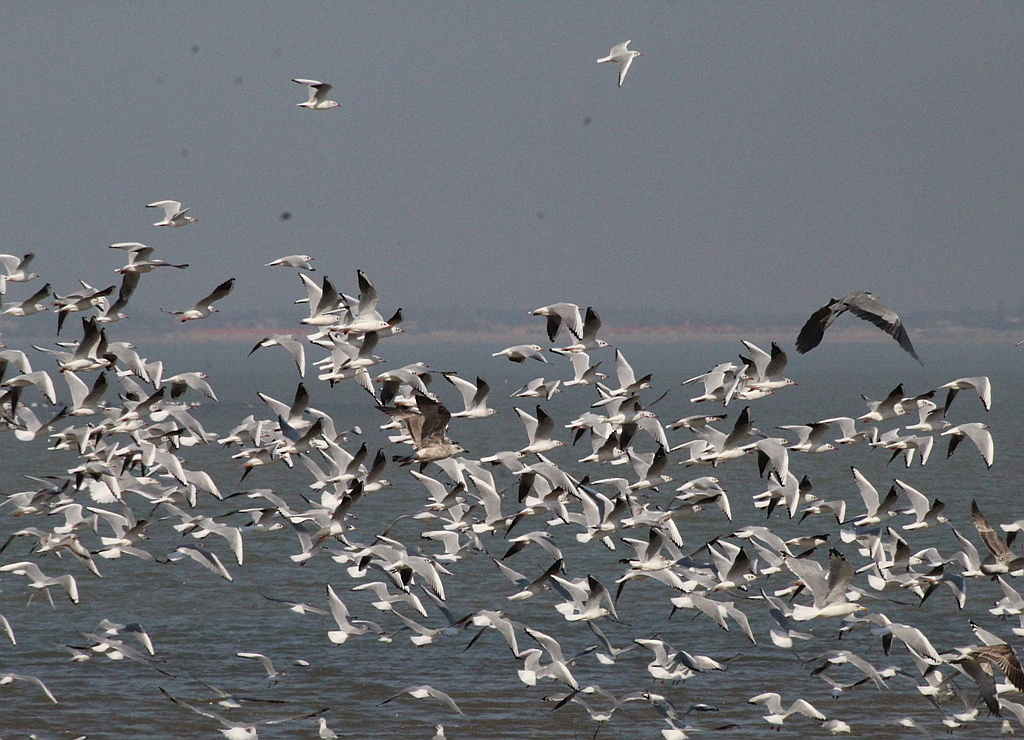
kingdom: Animalia
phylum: Chordata
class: Aves
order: Charadriiformes
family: Laridae
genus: Chroicocephalus
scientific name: Chroicocephalus ridibundus
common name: Black-headed gull
